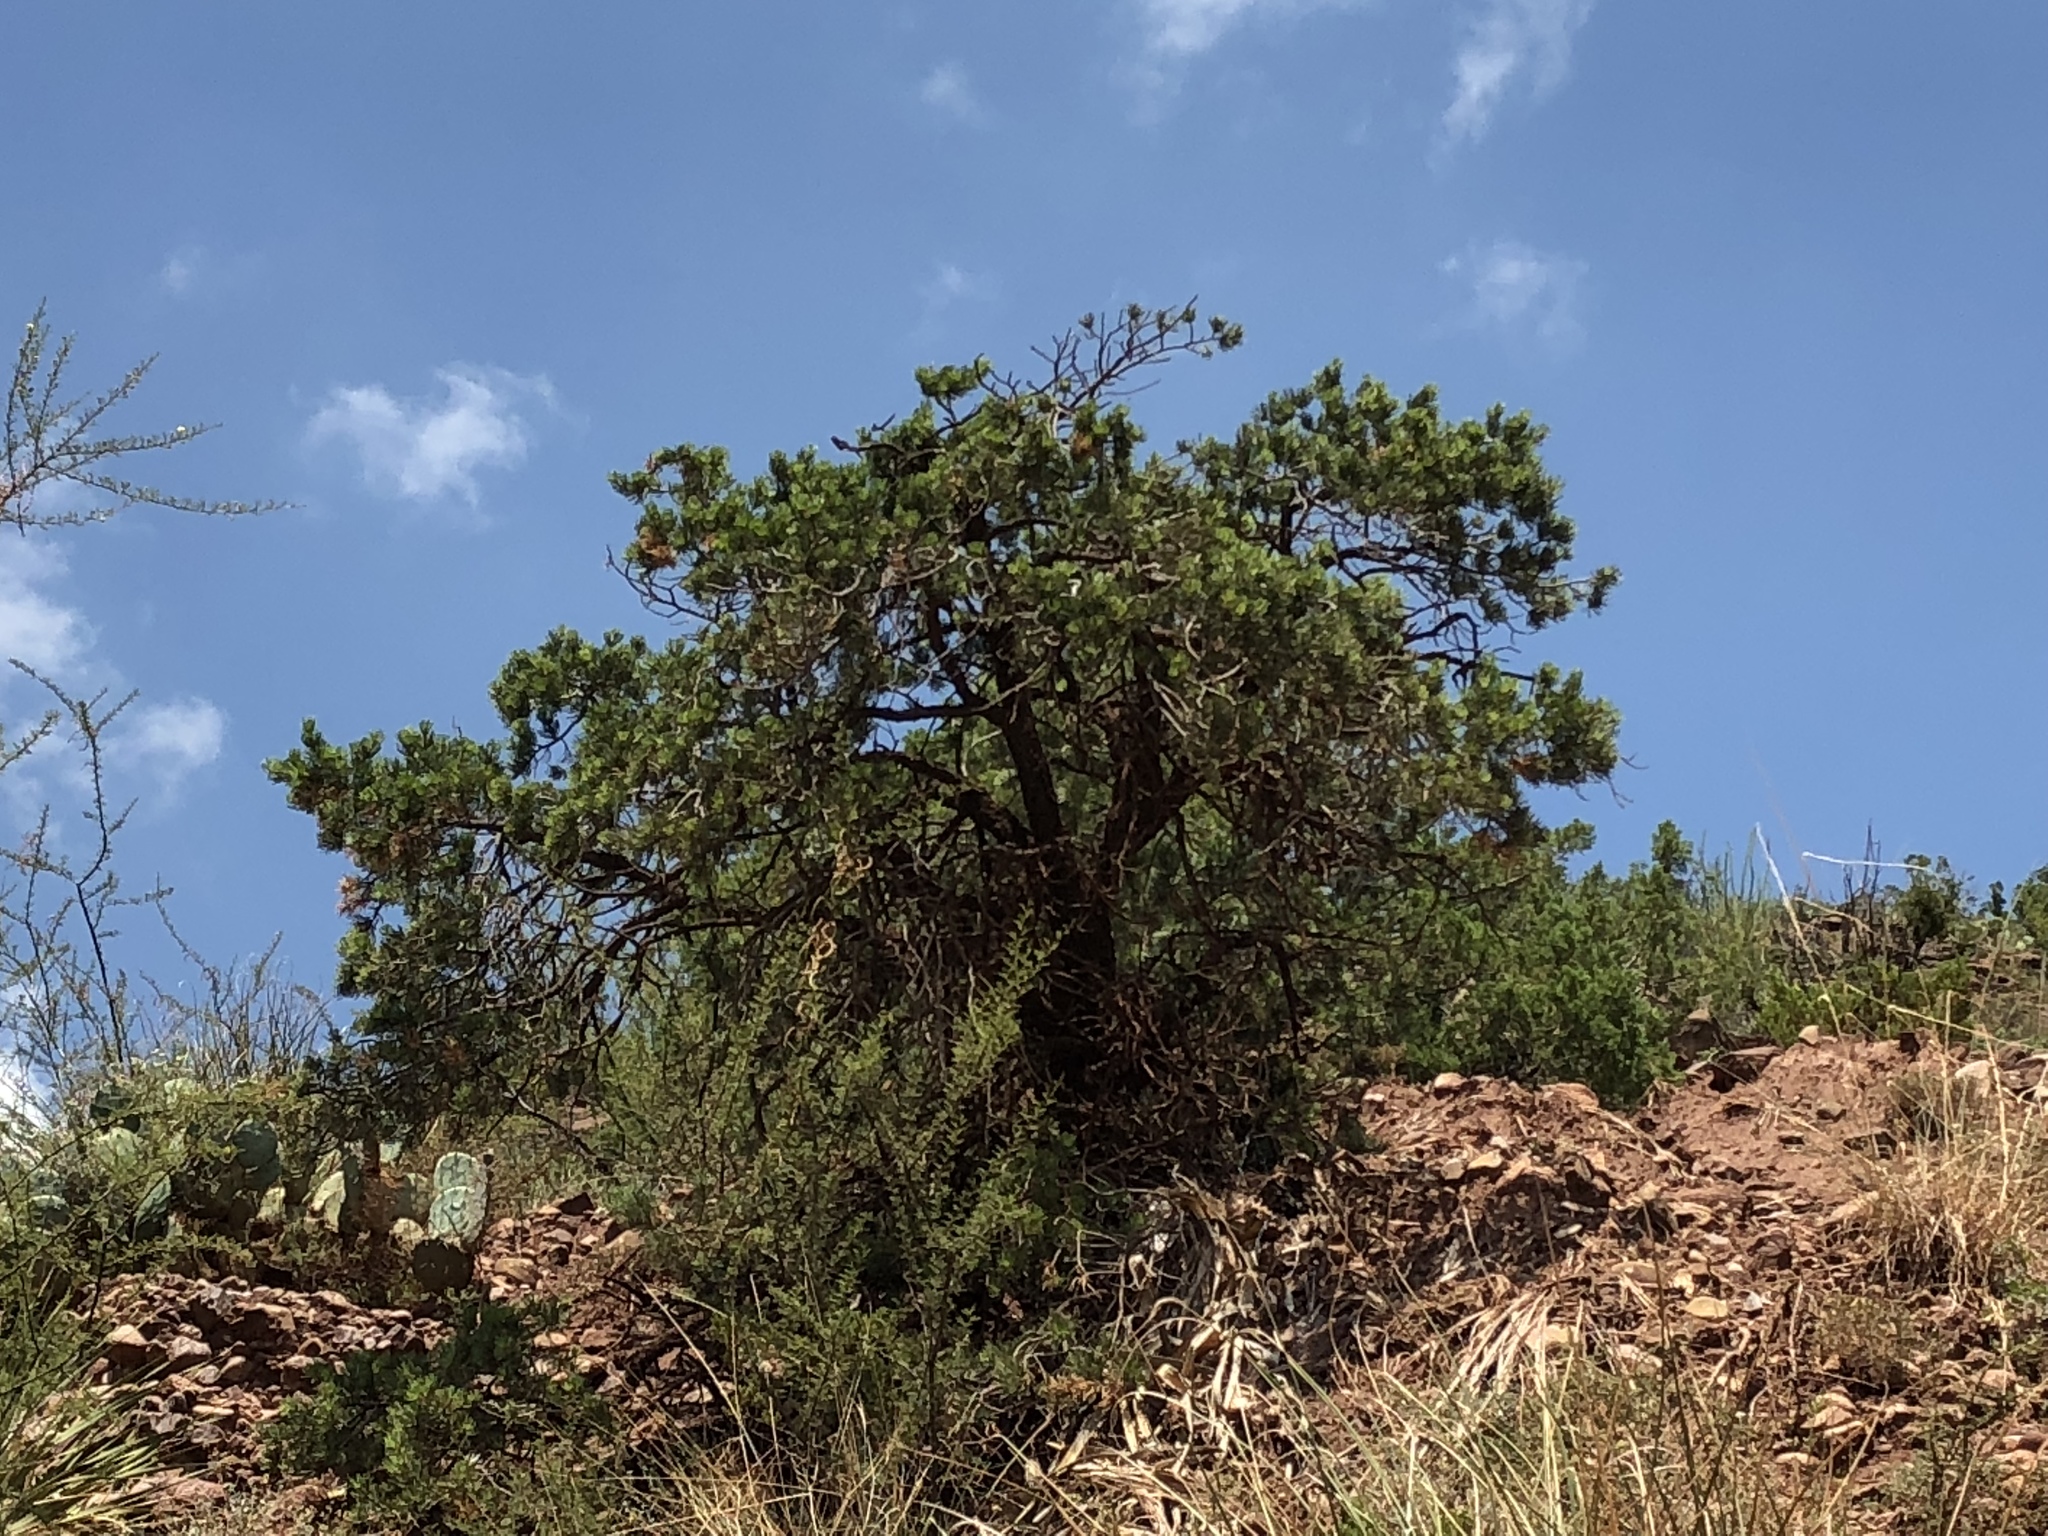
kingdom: Plantae
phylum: Tracheophyta
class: Pinopsida
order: Pinales
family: Pinaceae
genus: Pinus
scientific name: Pinus edulis
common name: Colorado pinyon
